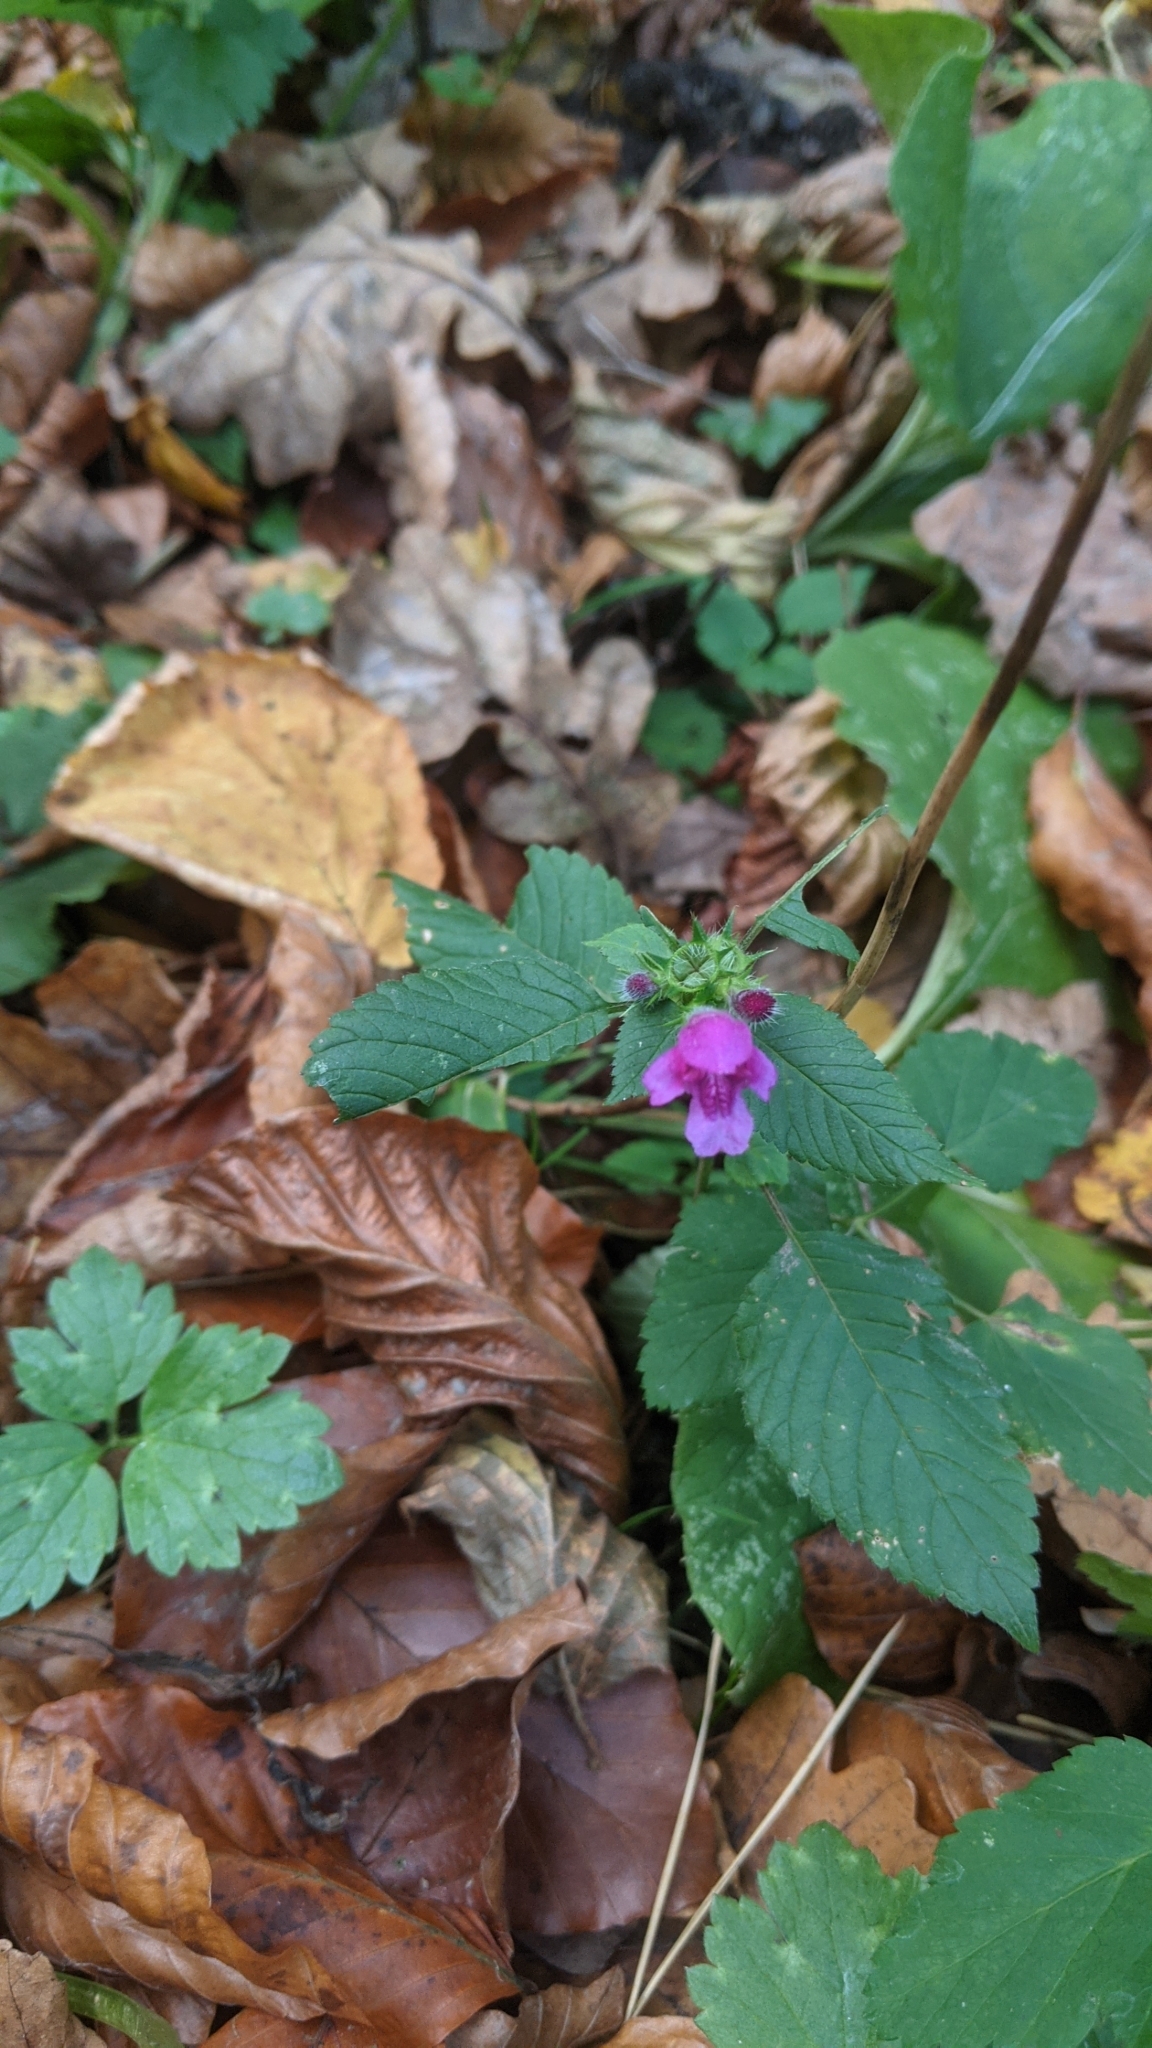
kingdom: Plantae
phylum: Tracheophyta
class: Magnoliopsida
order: Lamiales
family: Lamiaceae
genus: Galeopsis
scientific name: Galeopsis pubescens
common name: Downy hemp-nettle
